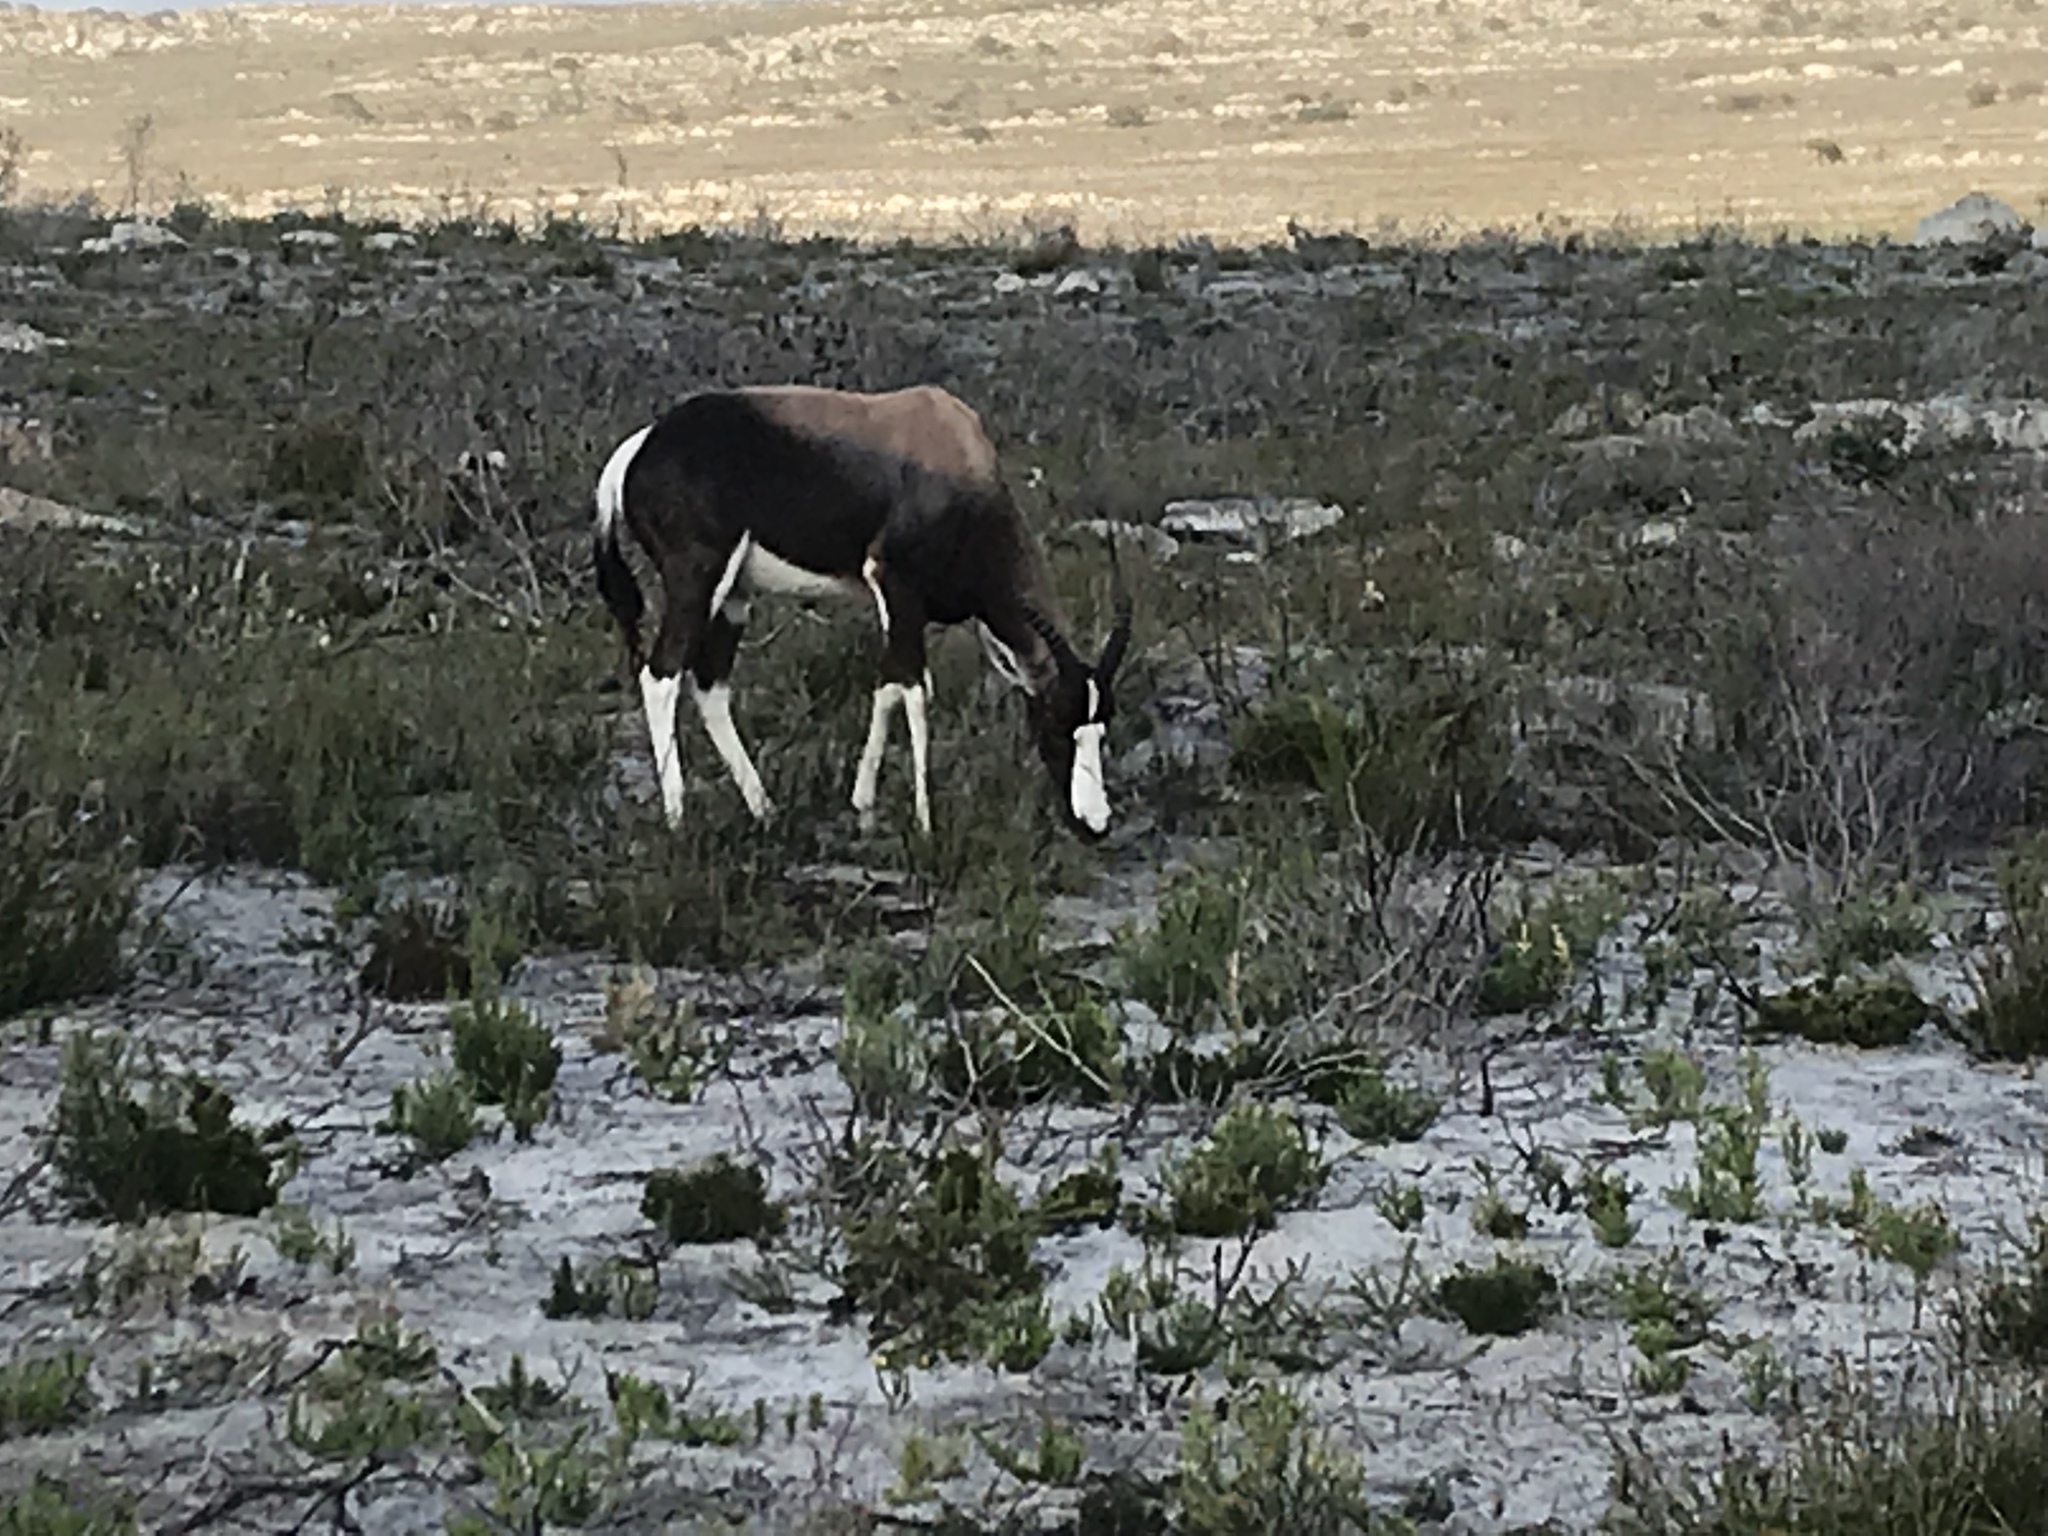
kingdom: Animalia
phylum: Chordata
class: Mammalia
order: Artiodactyla
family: Bovidae
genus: Damaliscus
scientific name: Damaliscus pygargus
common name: Bontebok
